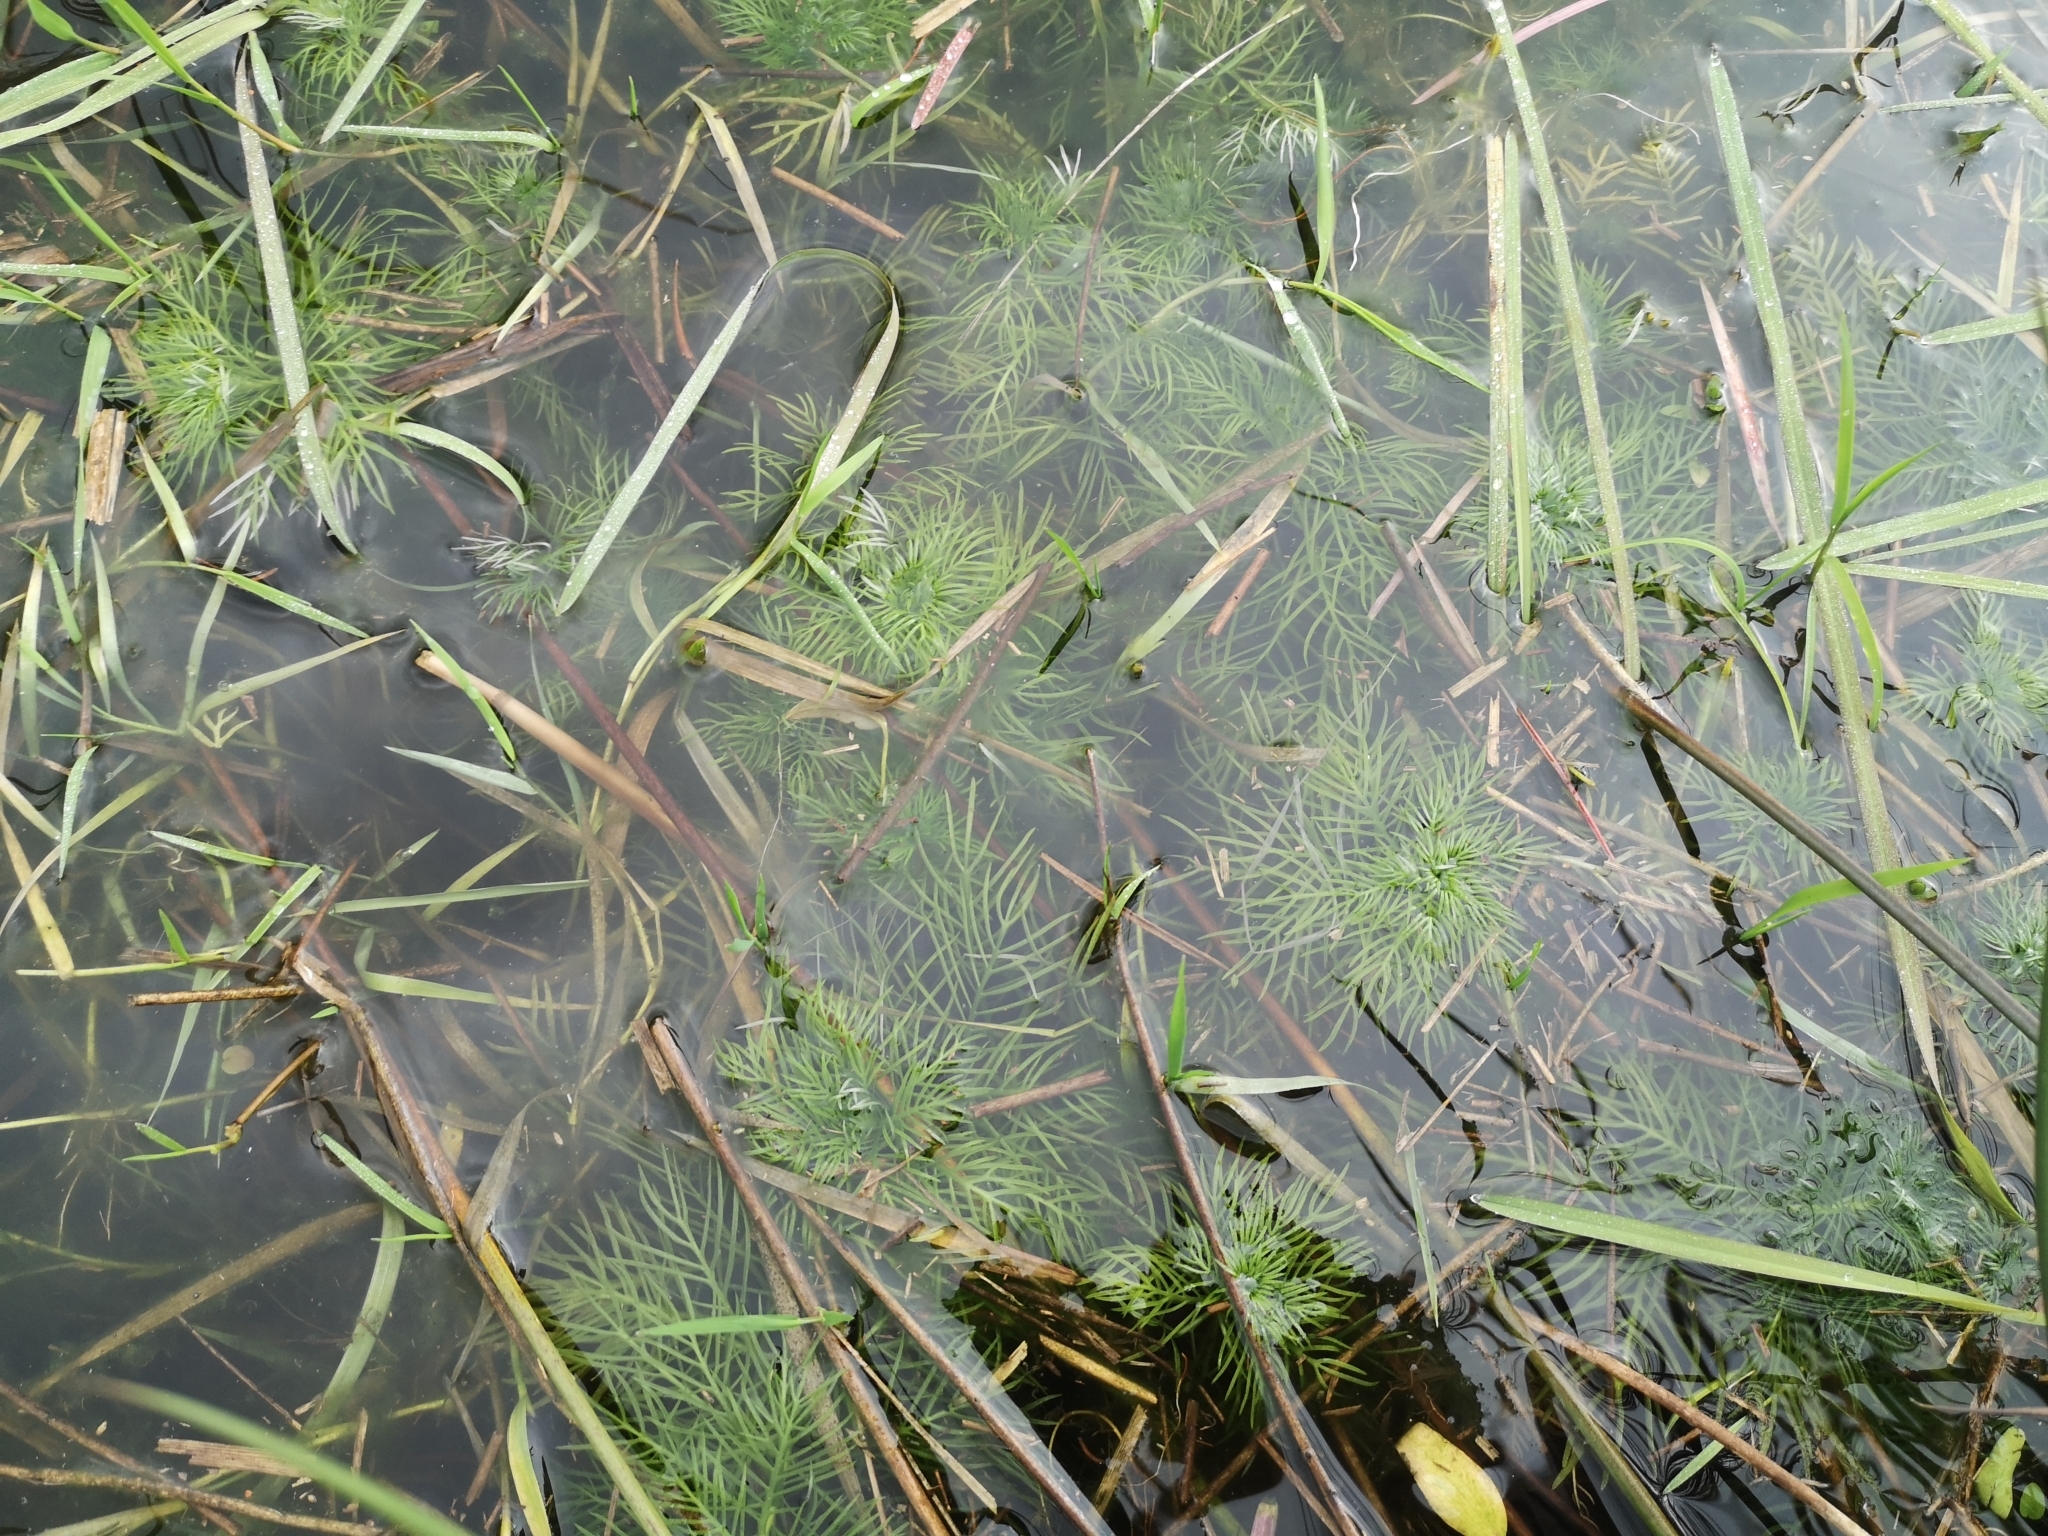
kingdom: Plantae
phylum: Tracheophyta
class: Magnoliopsida
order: Ericales
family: Primulaceae
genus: Hottonia
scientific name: Hottonia palustris
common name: Water-violet
